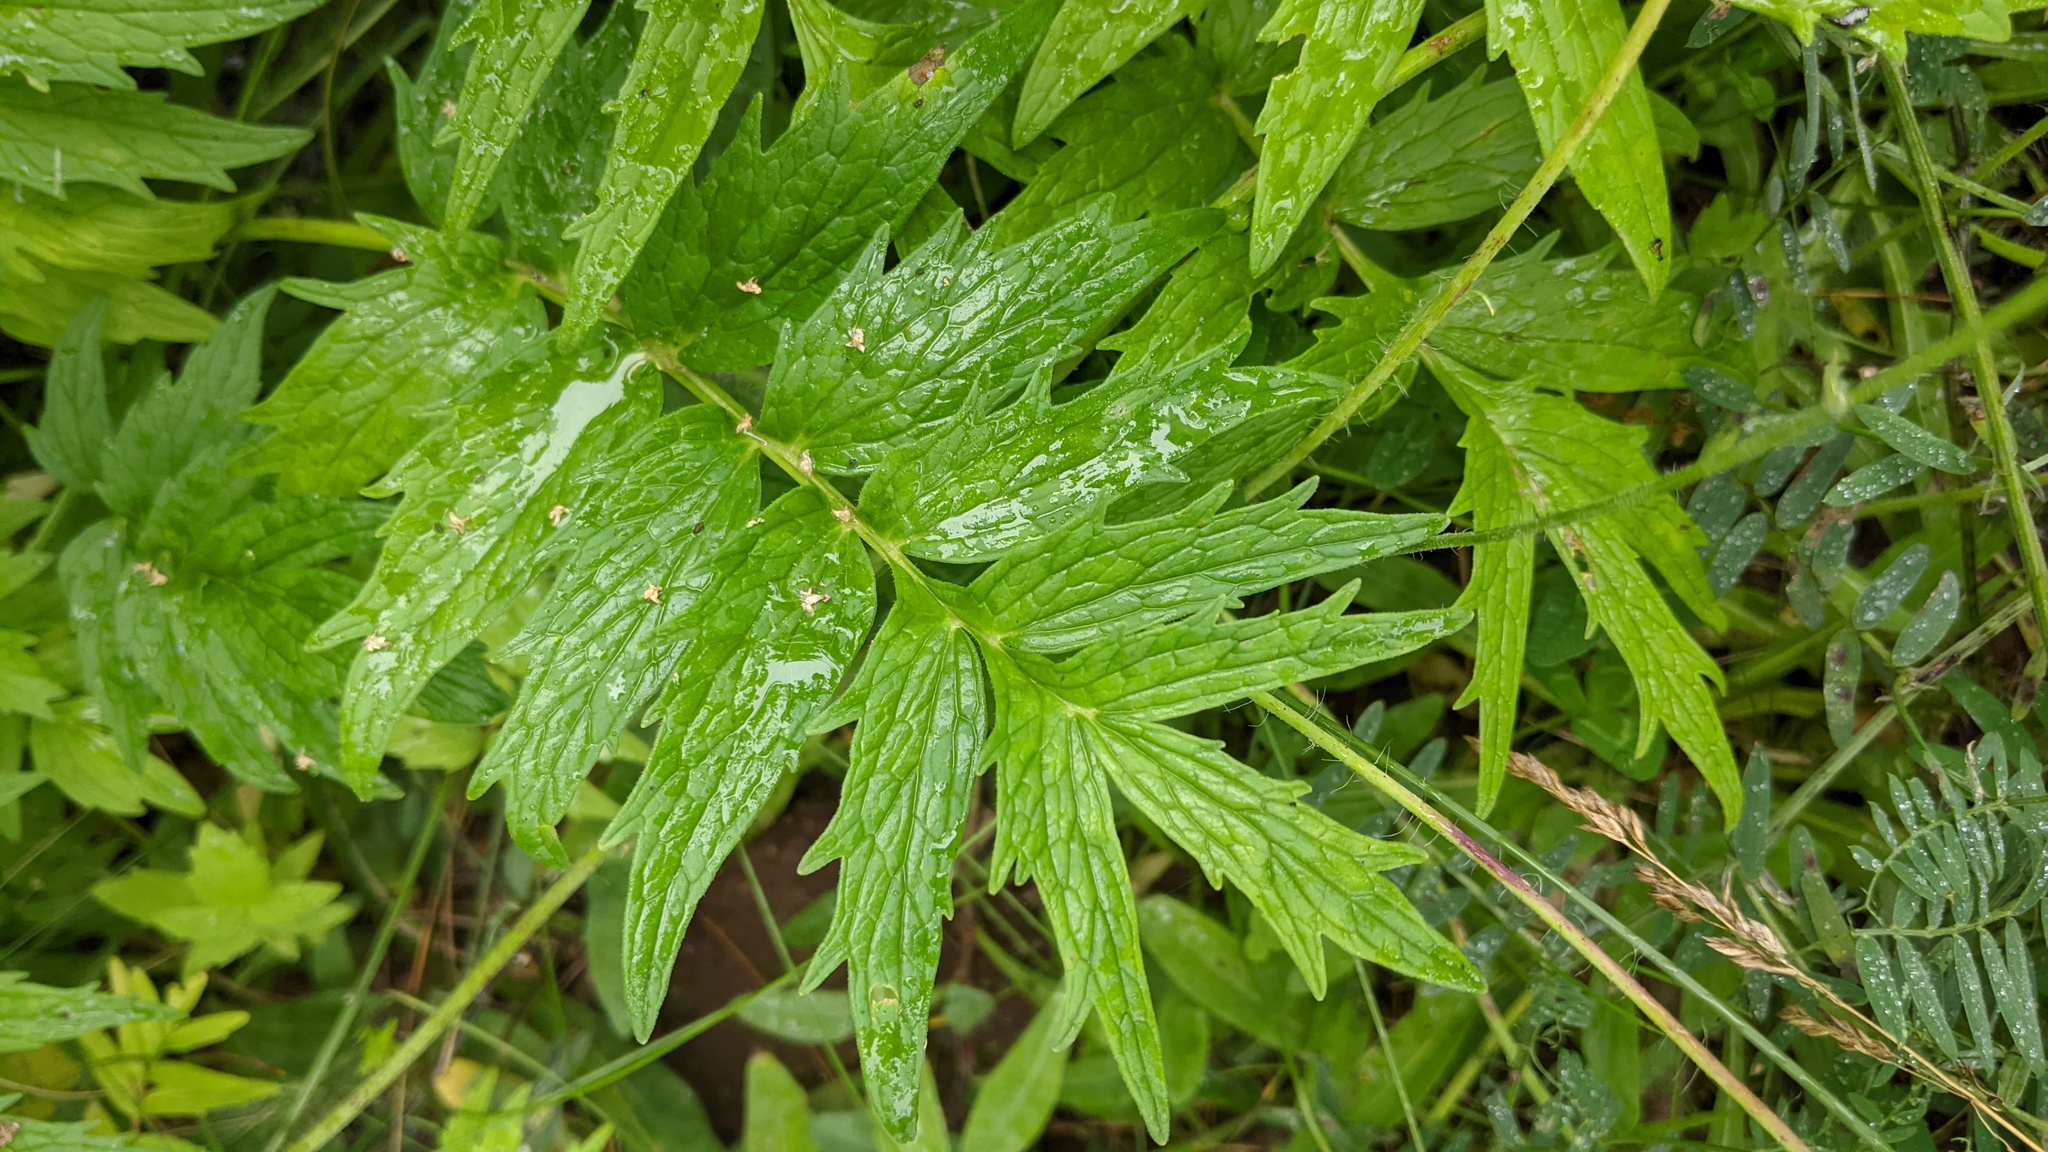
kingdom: Plantae
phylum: Tracheophyta
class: Magnoliopsida
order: Dipsacales
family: Caprifoliaceae
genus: Valeriana
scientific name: Valeriana officinalis
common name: Common valerian
